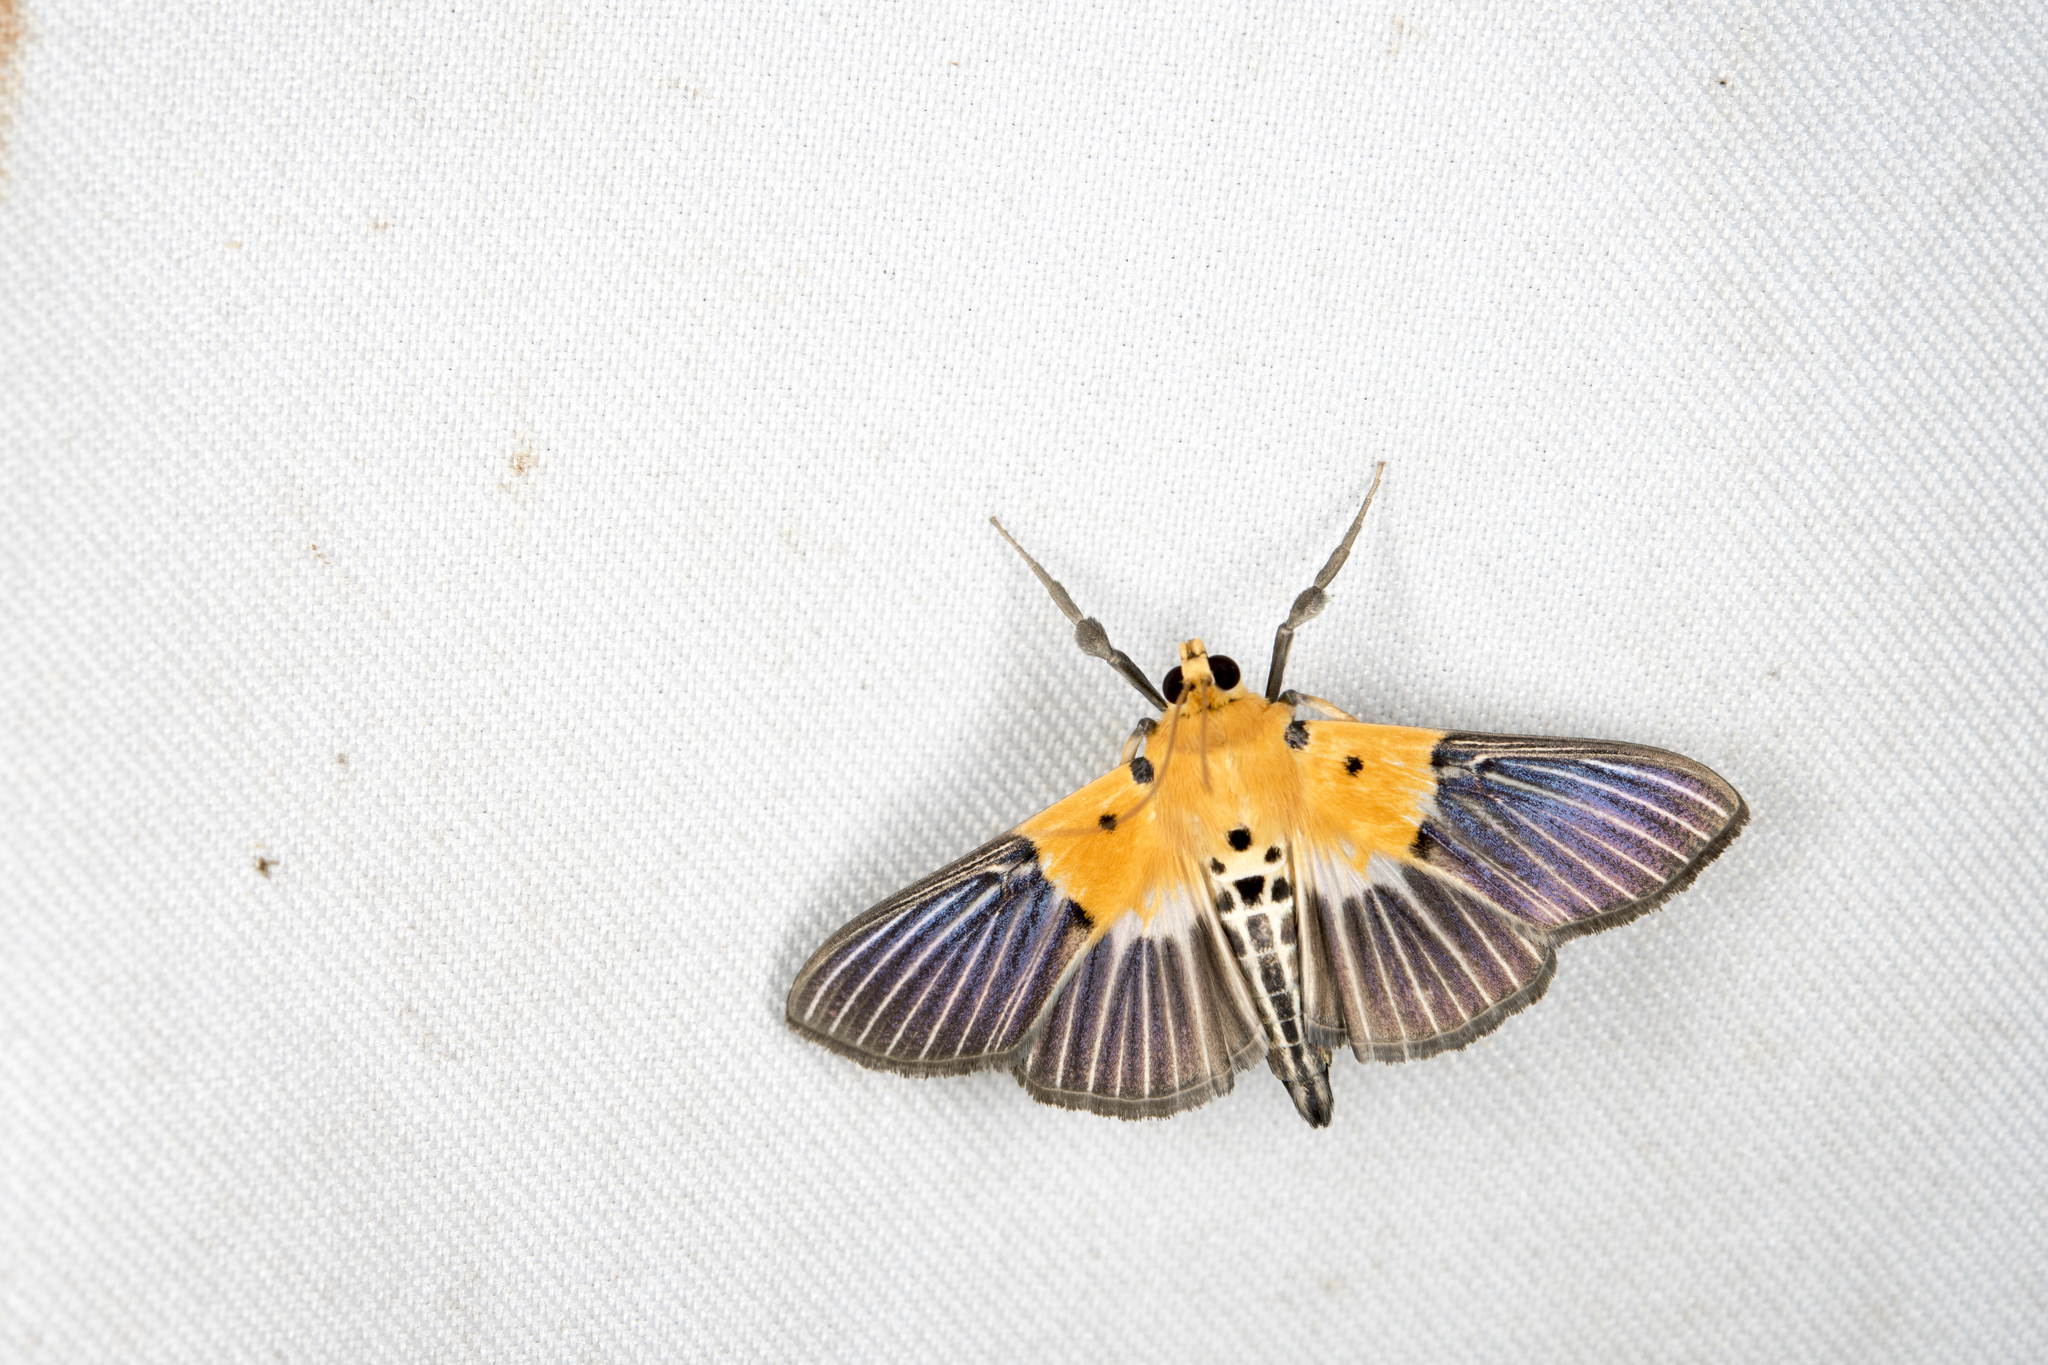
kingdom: Animalia
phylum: Arthropoda
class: Insecta
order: Lepidoptera
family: Crambidae
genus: Nevrina
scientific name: Nevrina procopia
